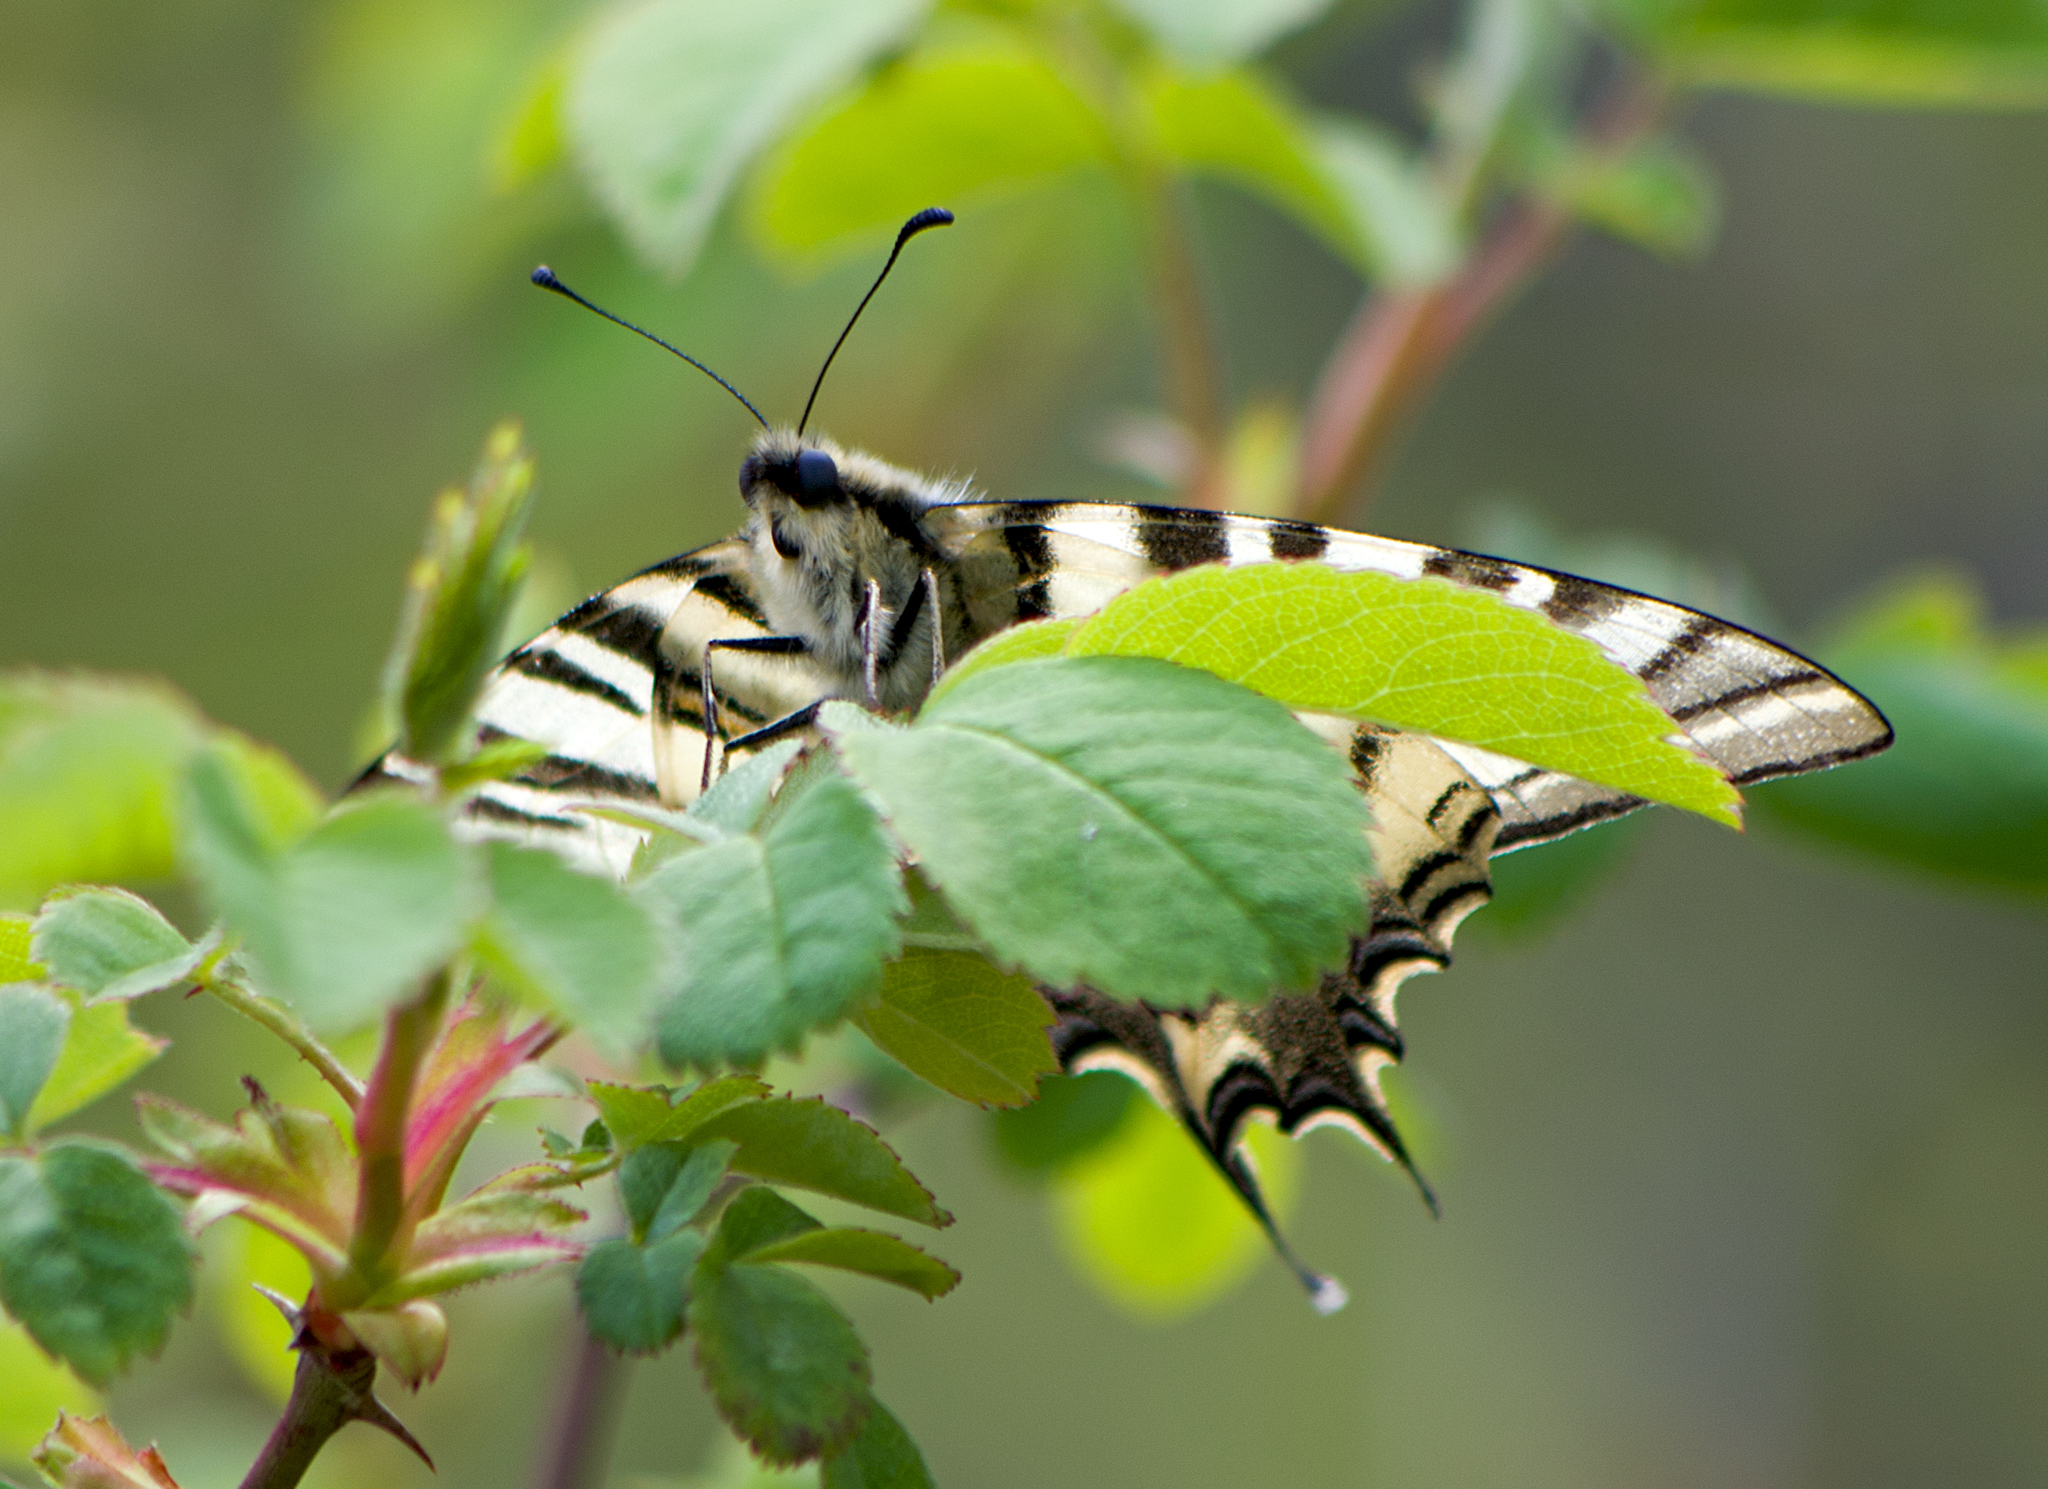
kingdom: Animalia
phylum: Arthropoda
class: Insecta
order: Lepidoptera
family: Papilionidae
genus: Iphiclides
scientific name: Iphiclides podalirius
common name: Scarce swallowtail
